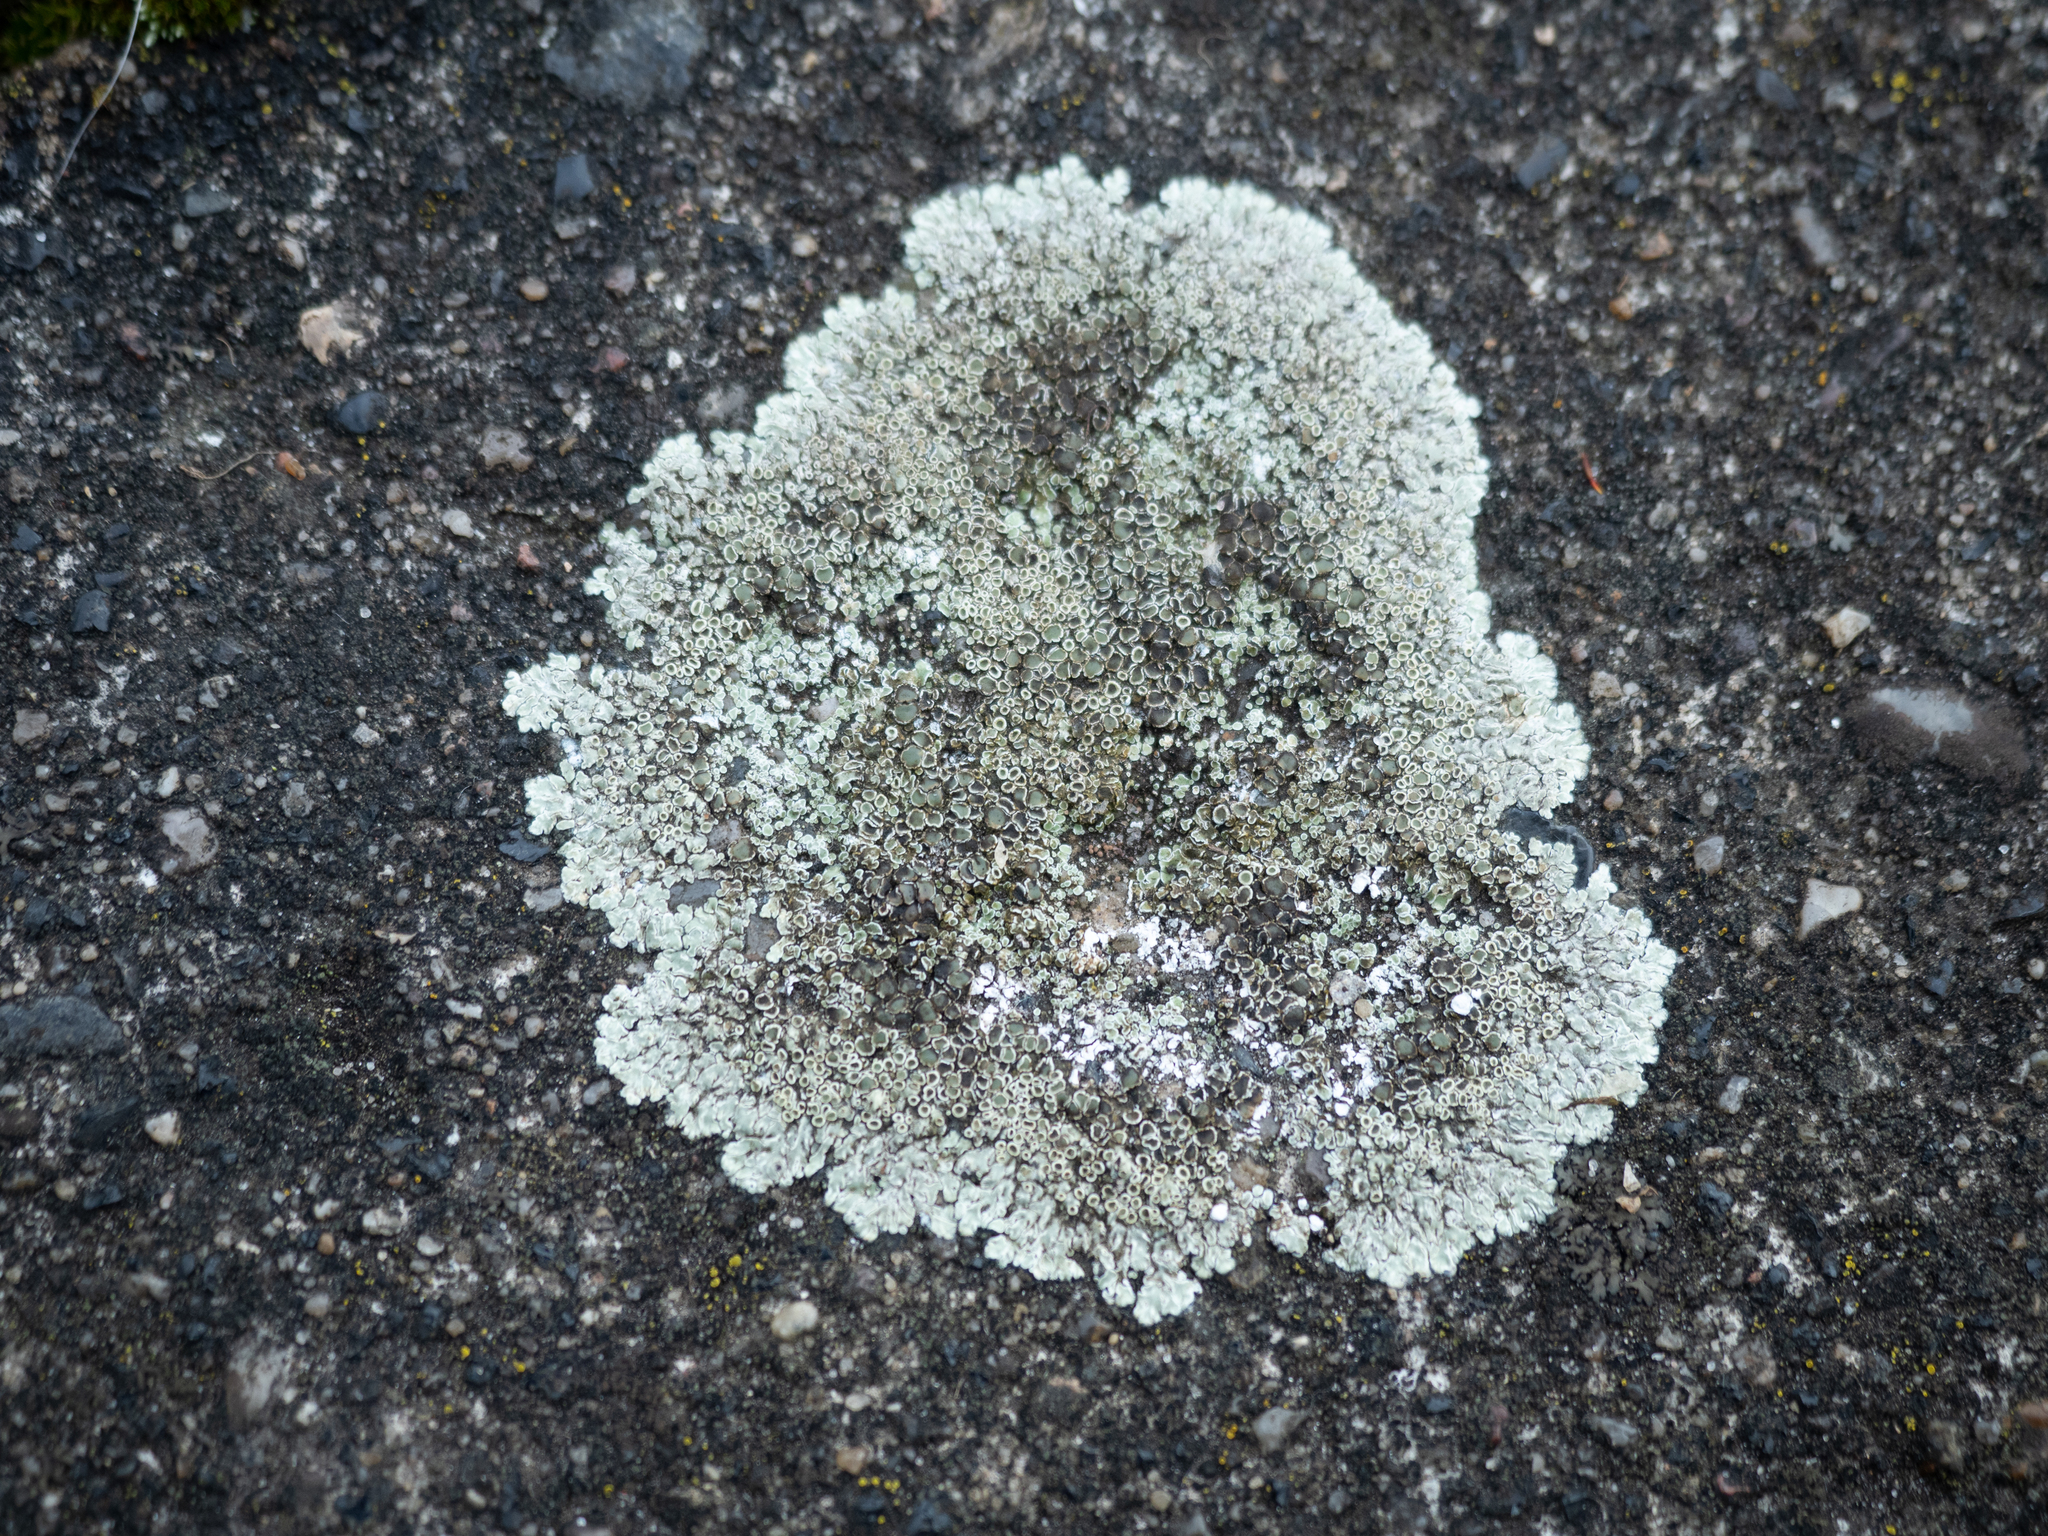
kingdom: Fungi
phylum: Ascomycota
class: Lecanoromycetes
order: Lecanorales
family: Lecanoraceae
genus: Protoparmeliopsis
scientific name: Protoparmeliopsis muralis
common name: Stonewall rim lichen
